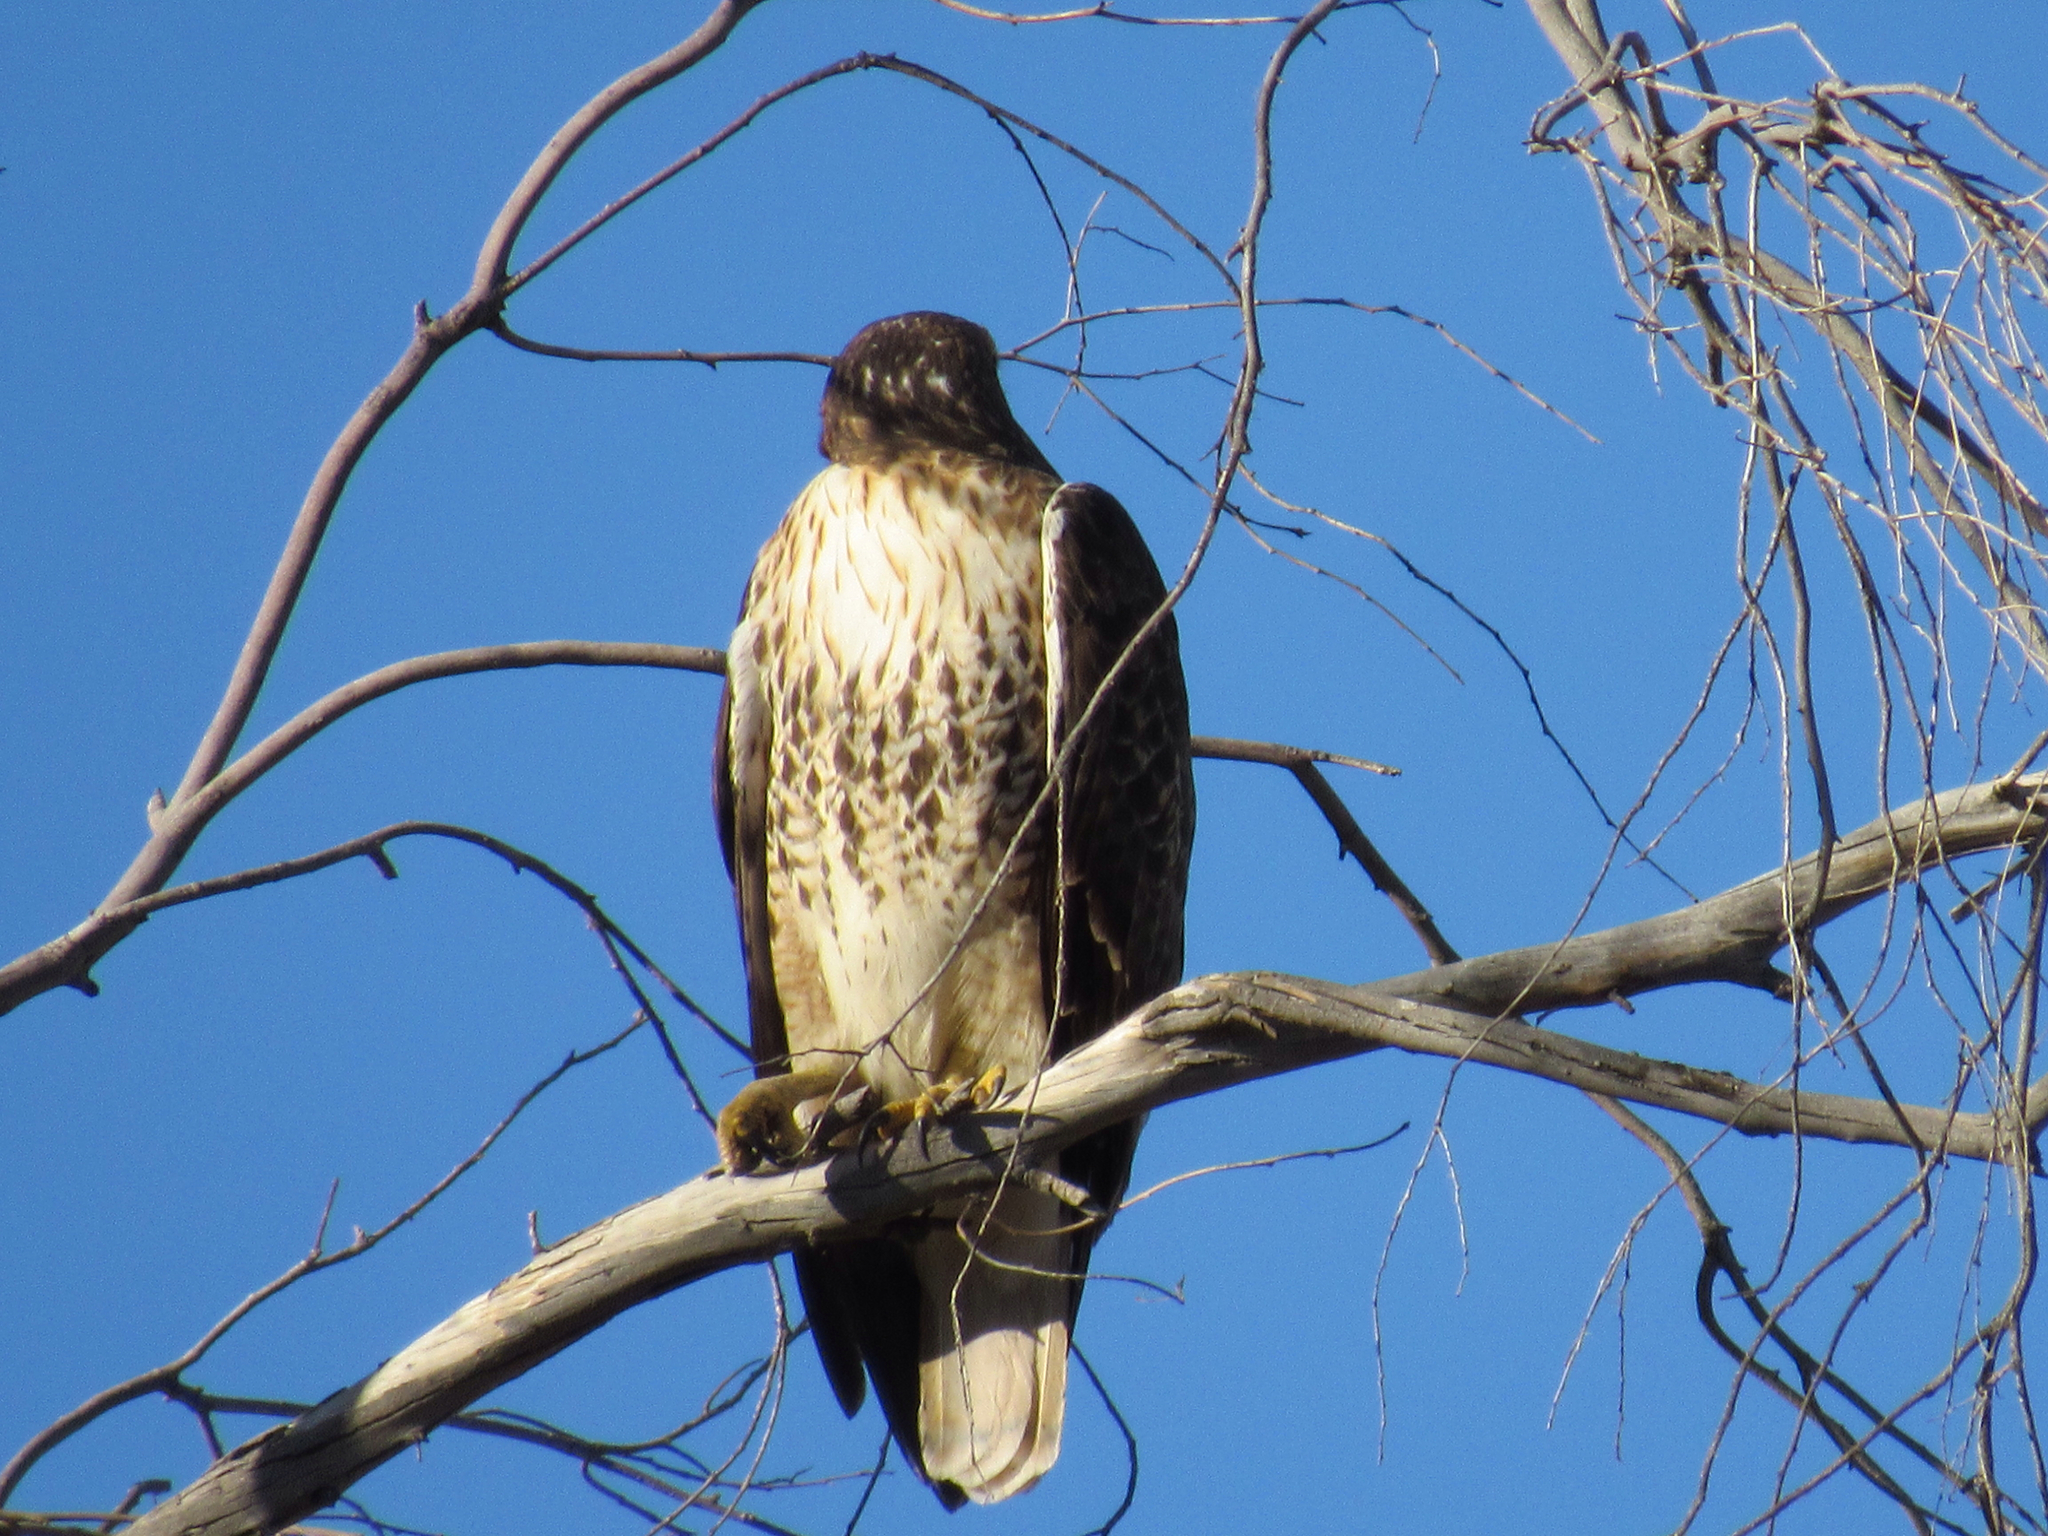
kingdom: Animalia
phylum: Chordata
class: Aves
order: Accipitriformes
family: Accipitridae
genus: Buteo
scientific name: Buteo jamaicensis
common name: Red-tailed hawk
